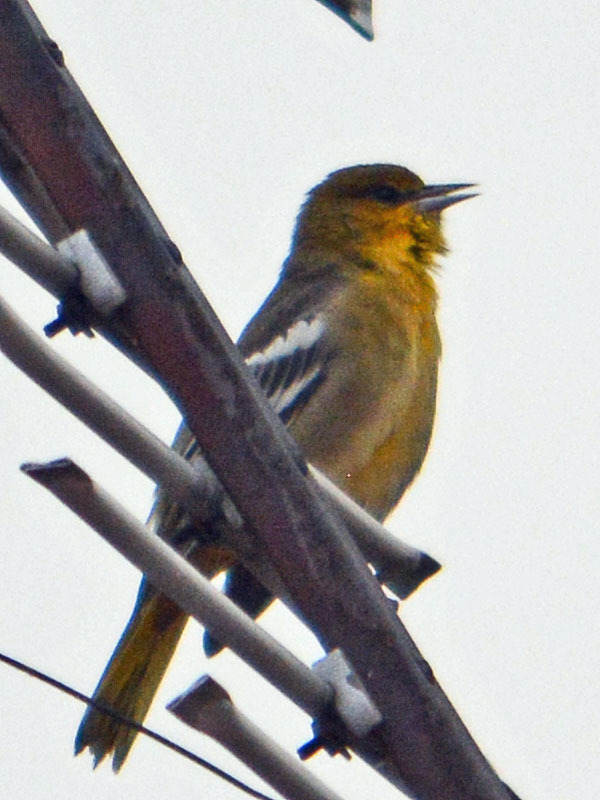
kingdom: Animalia
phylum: Chordata
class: Aves
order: Passeriformes
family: Icteridae
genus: Icterus
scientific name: Icterus bullockii
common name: Bullock's oriole
